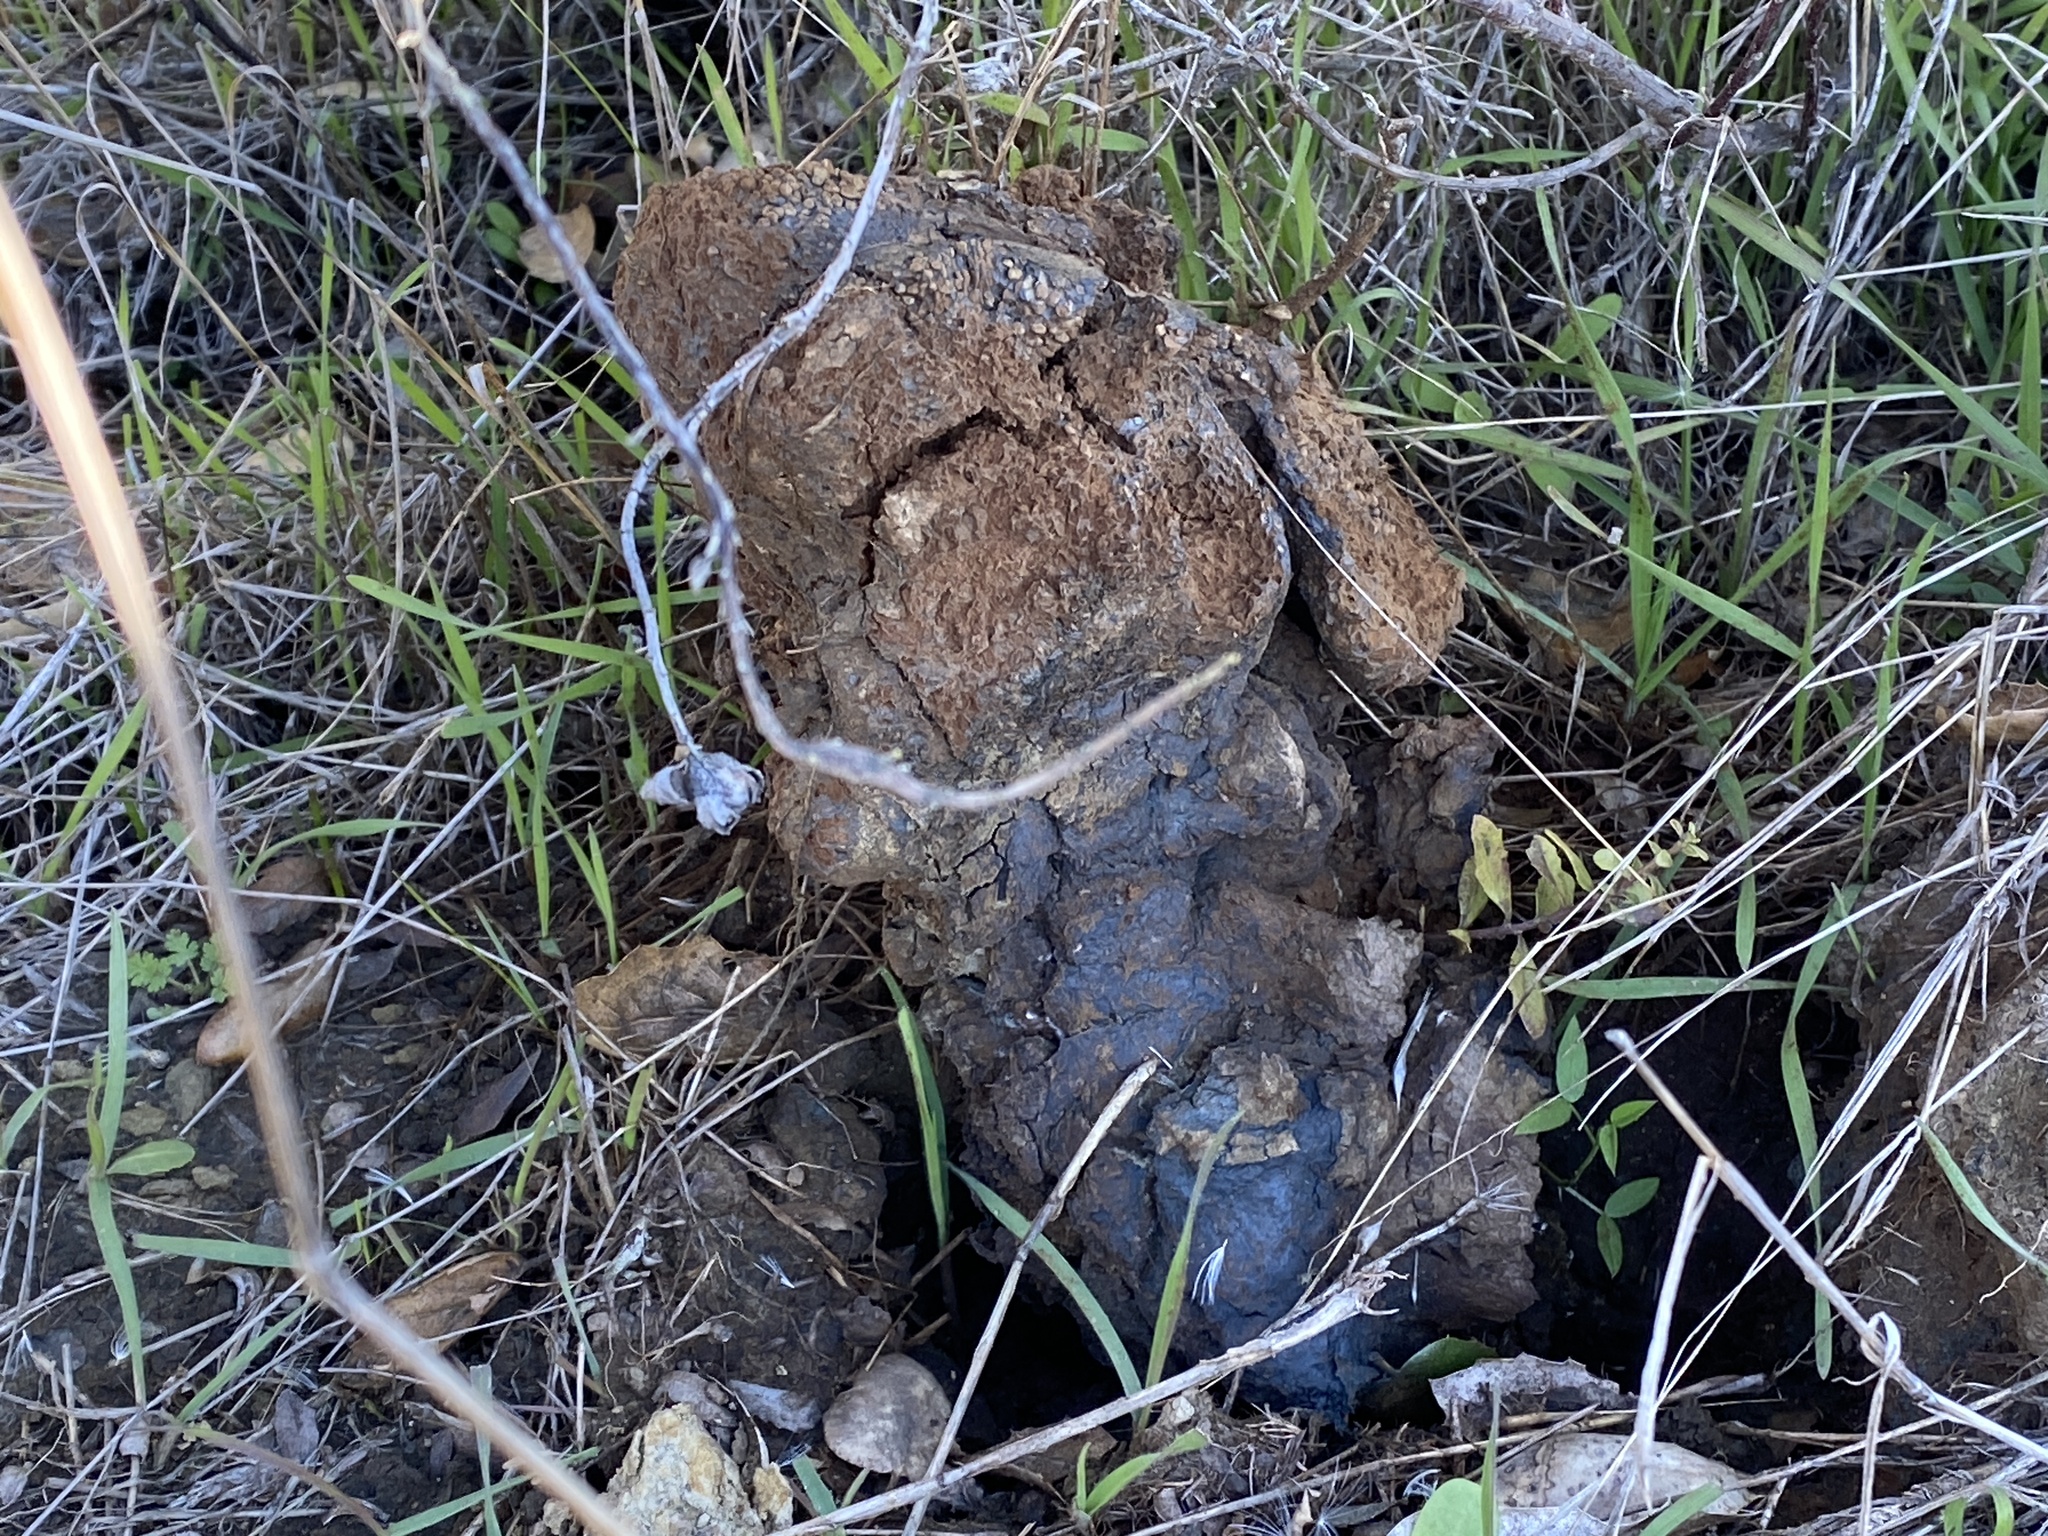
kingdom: Fungi
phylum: Basidiomycota
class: Agaricomycetes
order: Boletales
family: Sclerodermataceae
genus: Pisolithus
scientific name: Pisolithus tinctorius
